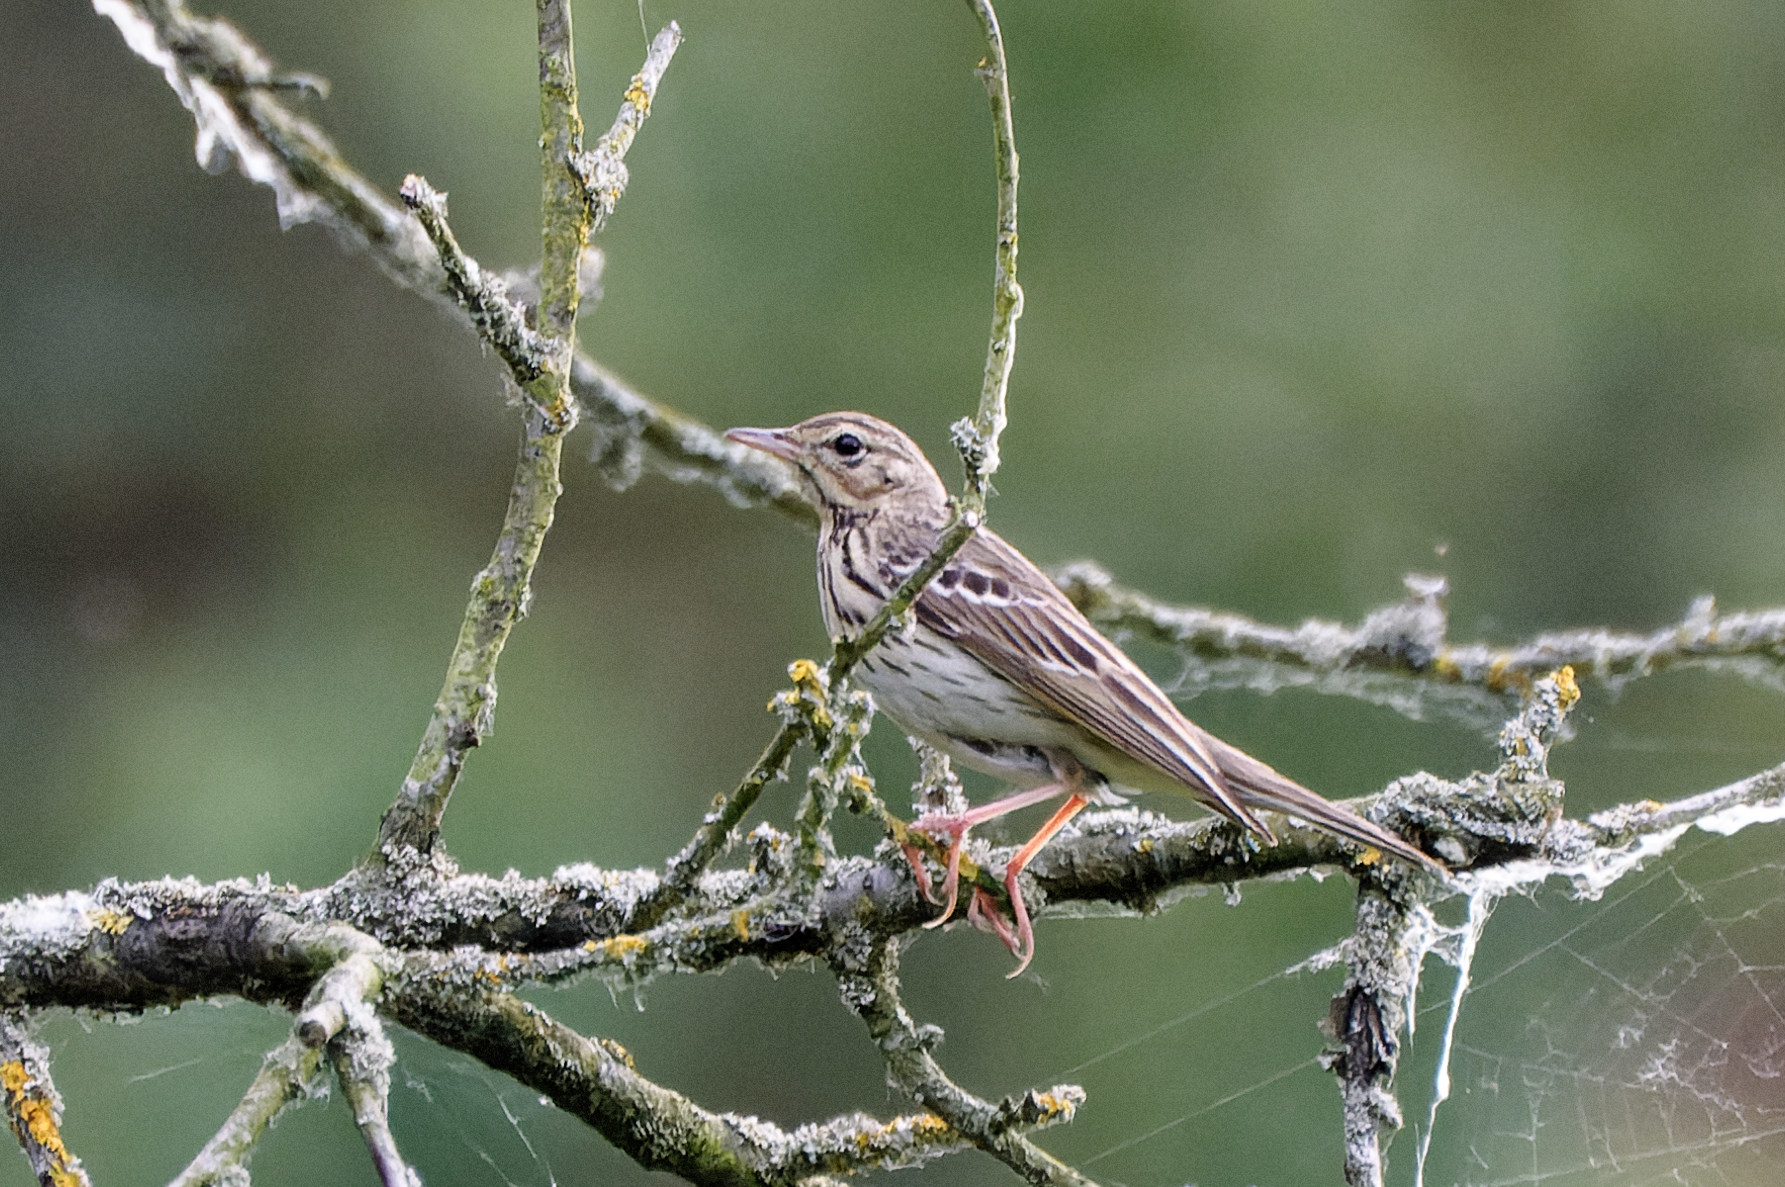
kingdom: Animalia
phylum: Chordata
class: Aves
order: Passeriformes
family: Motacillidae
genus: Anthus
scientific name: Anthus trivialis
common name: Tree pipit
